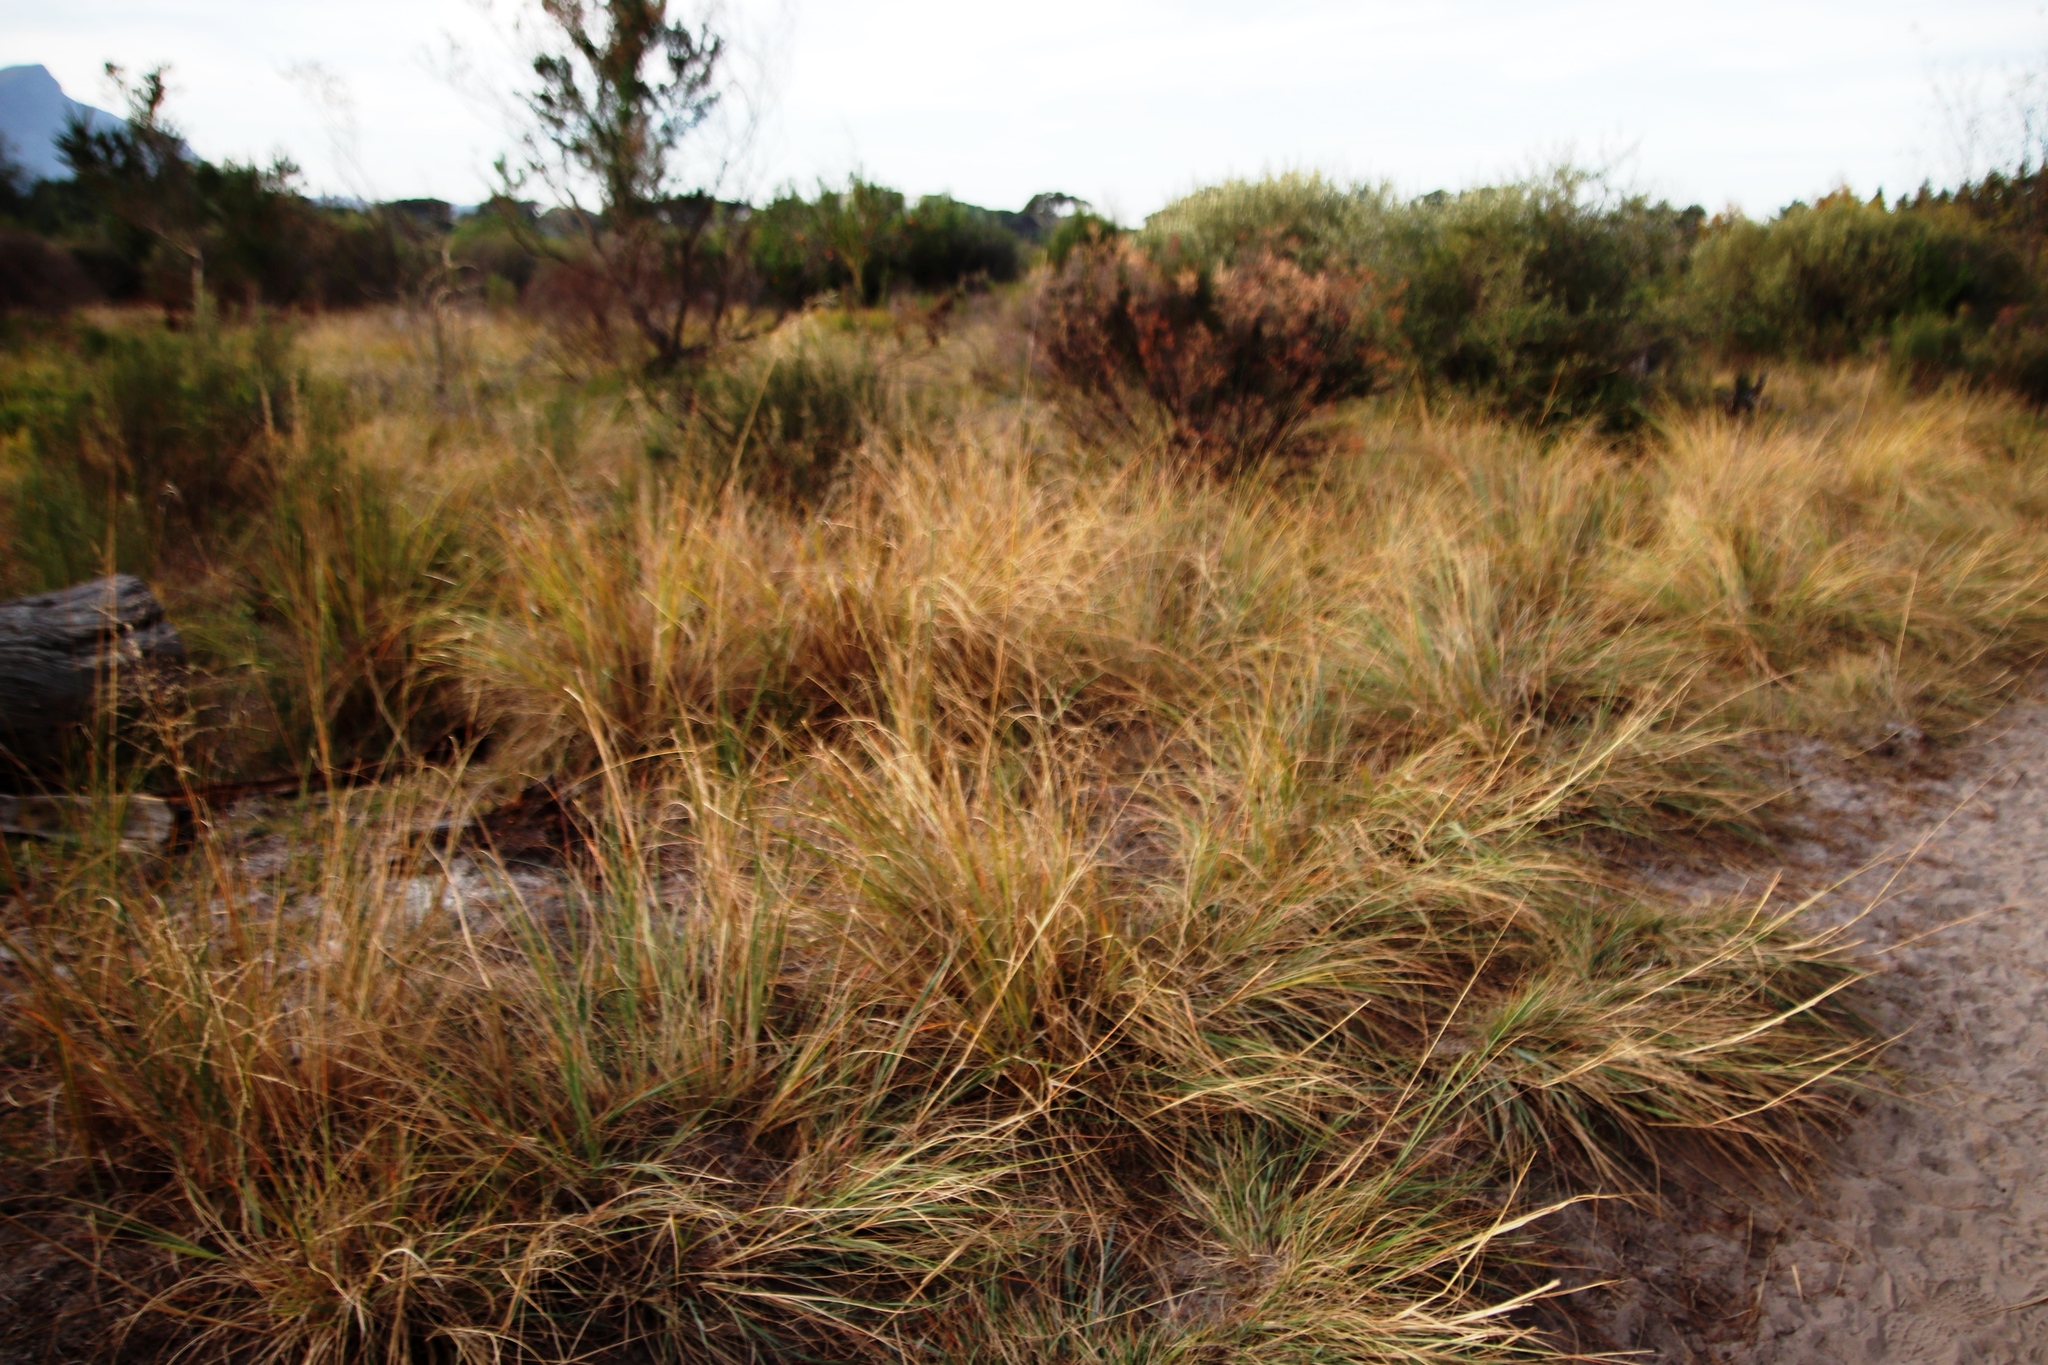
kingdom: Plantae
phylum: Tracheophyta
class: Liliopsida
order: Poales
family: Poaceae
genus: Eragrostis
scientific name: Eragrostis curvula
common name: African love-grass
